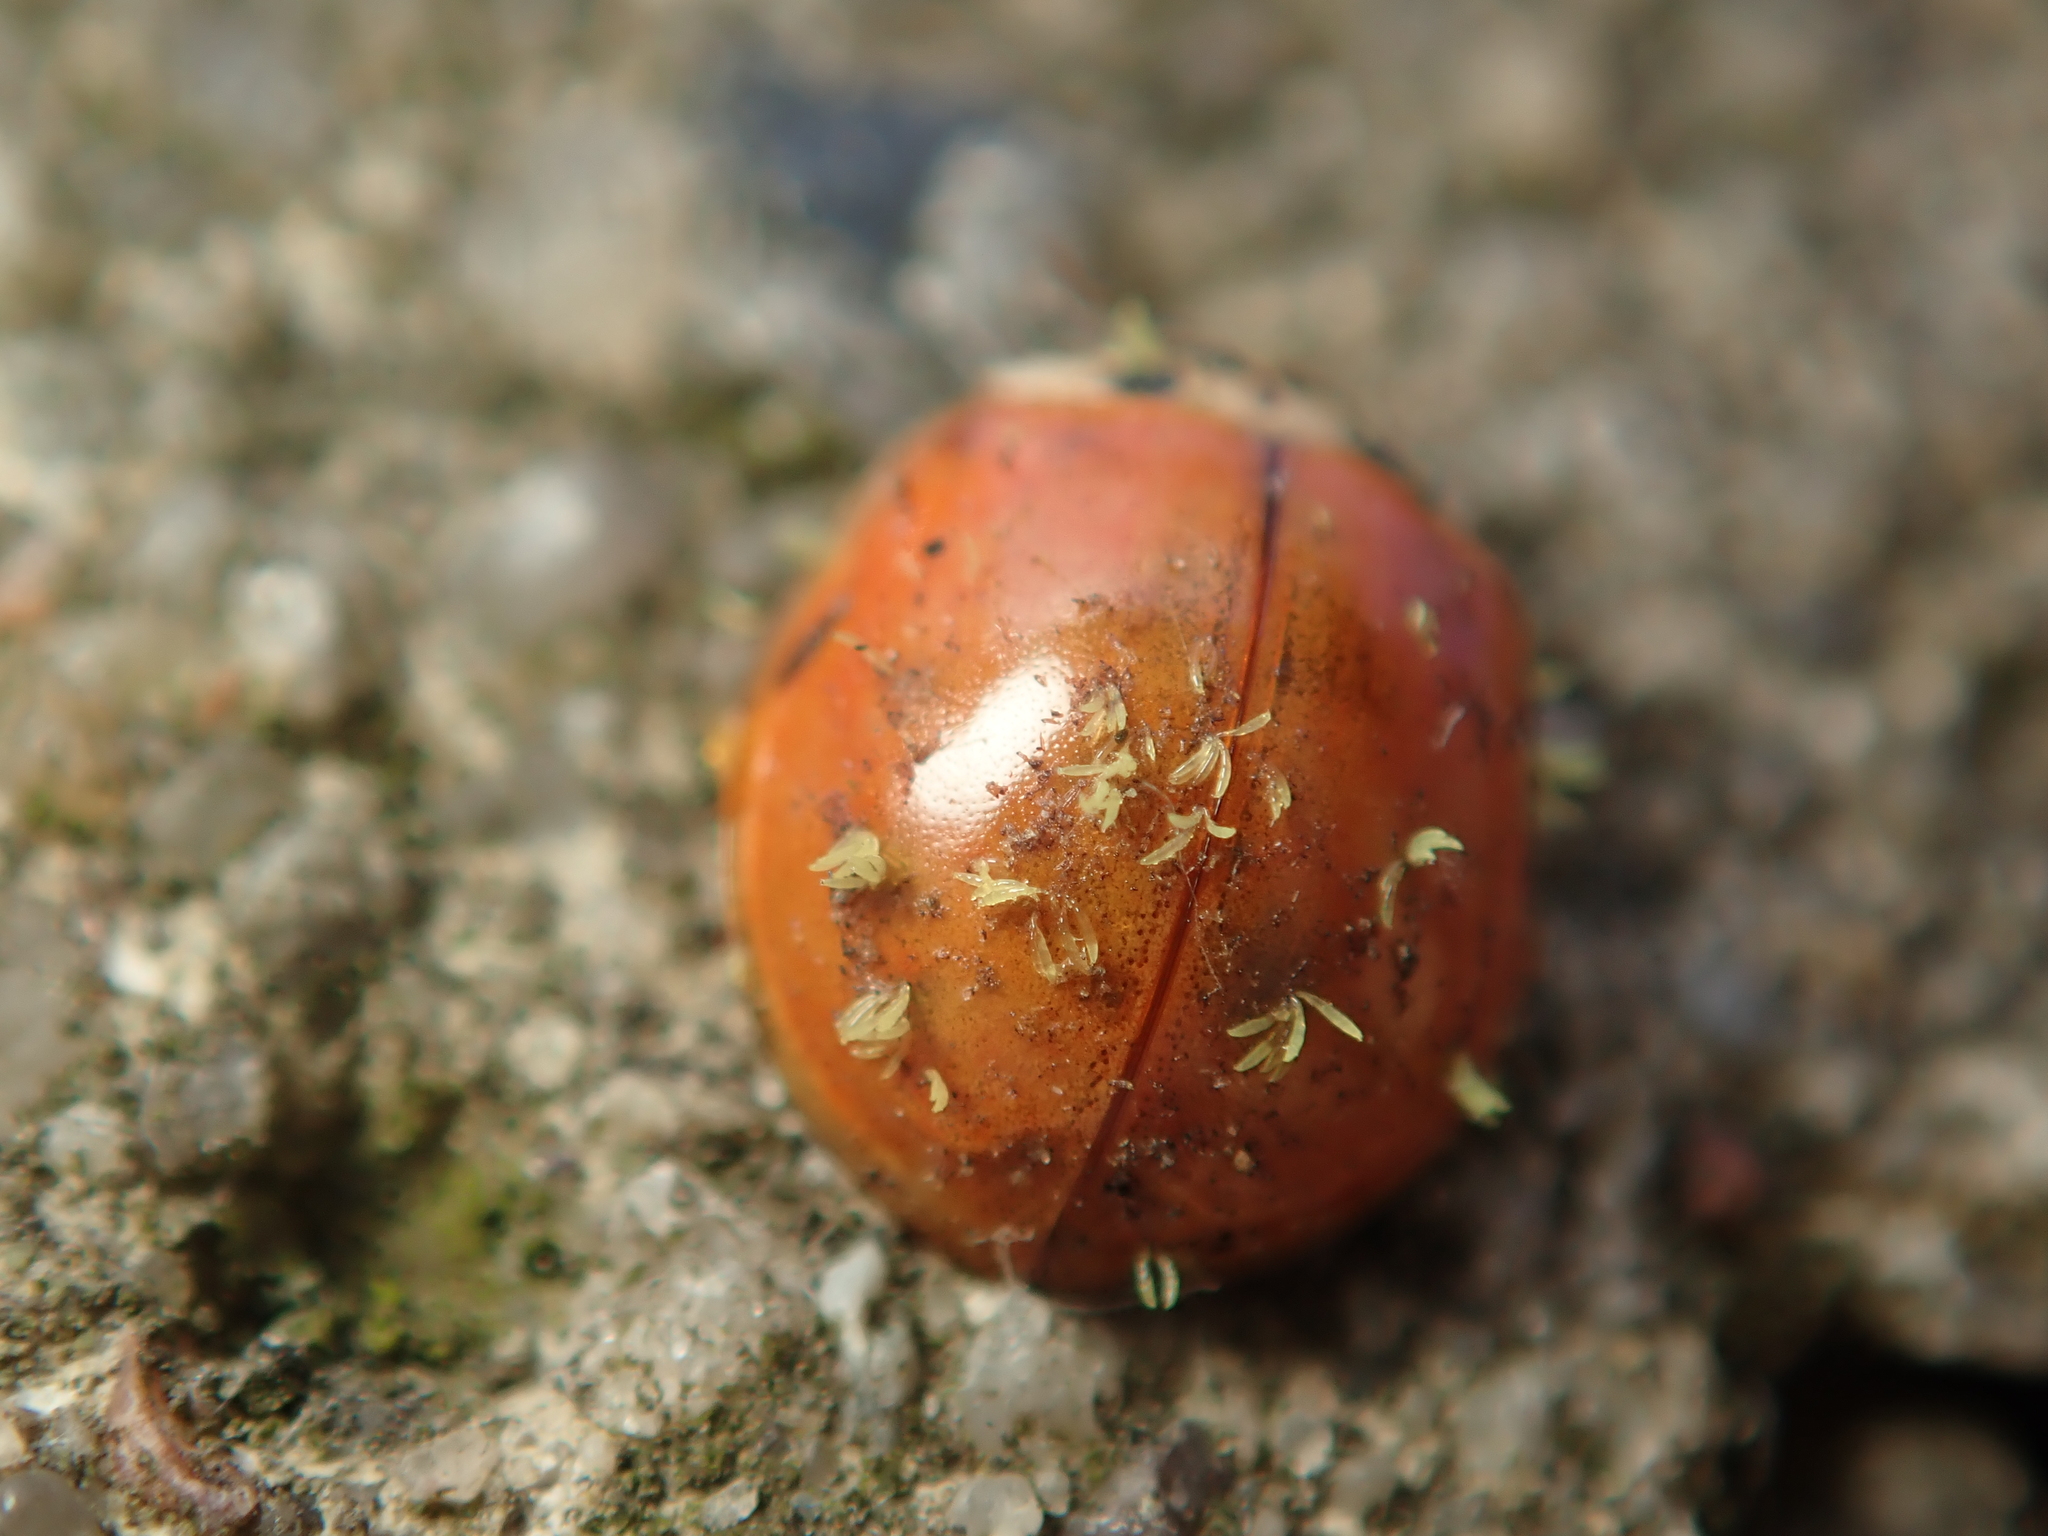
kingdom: Fungi
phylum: Ascomycota
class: Laboulbeniomycetes
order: Laboulbeniales
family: Laboulbeniaceae
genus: Hesperomyces
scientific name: Hesperomyces harmoniae
